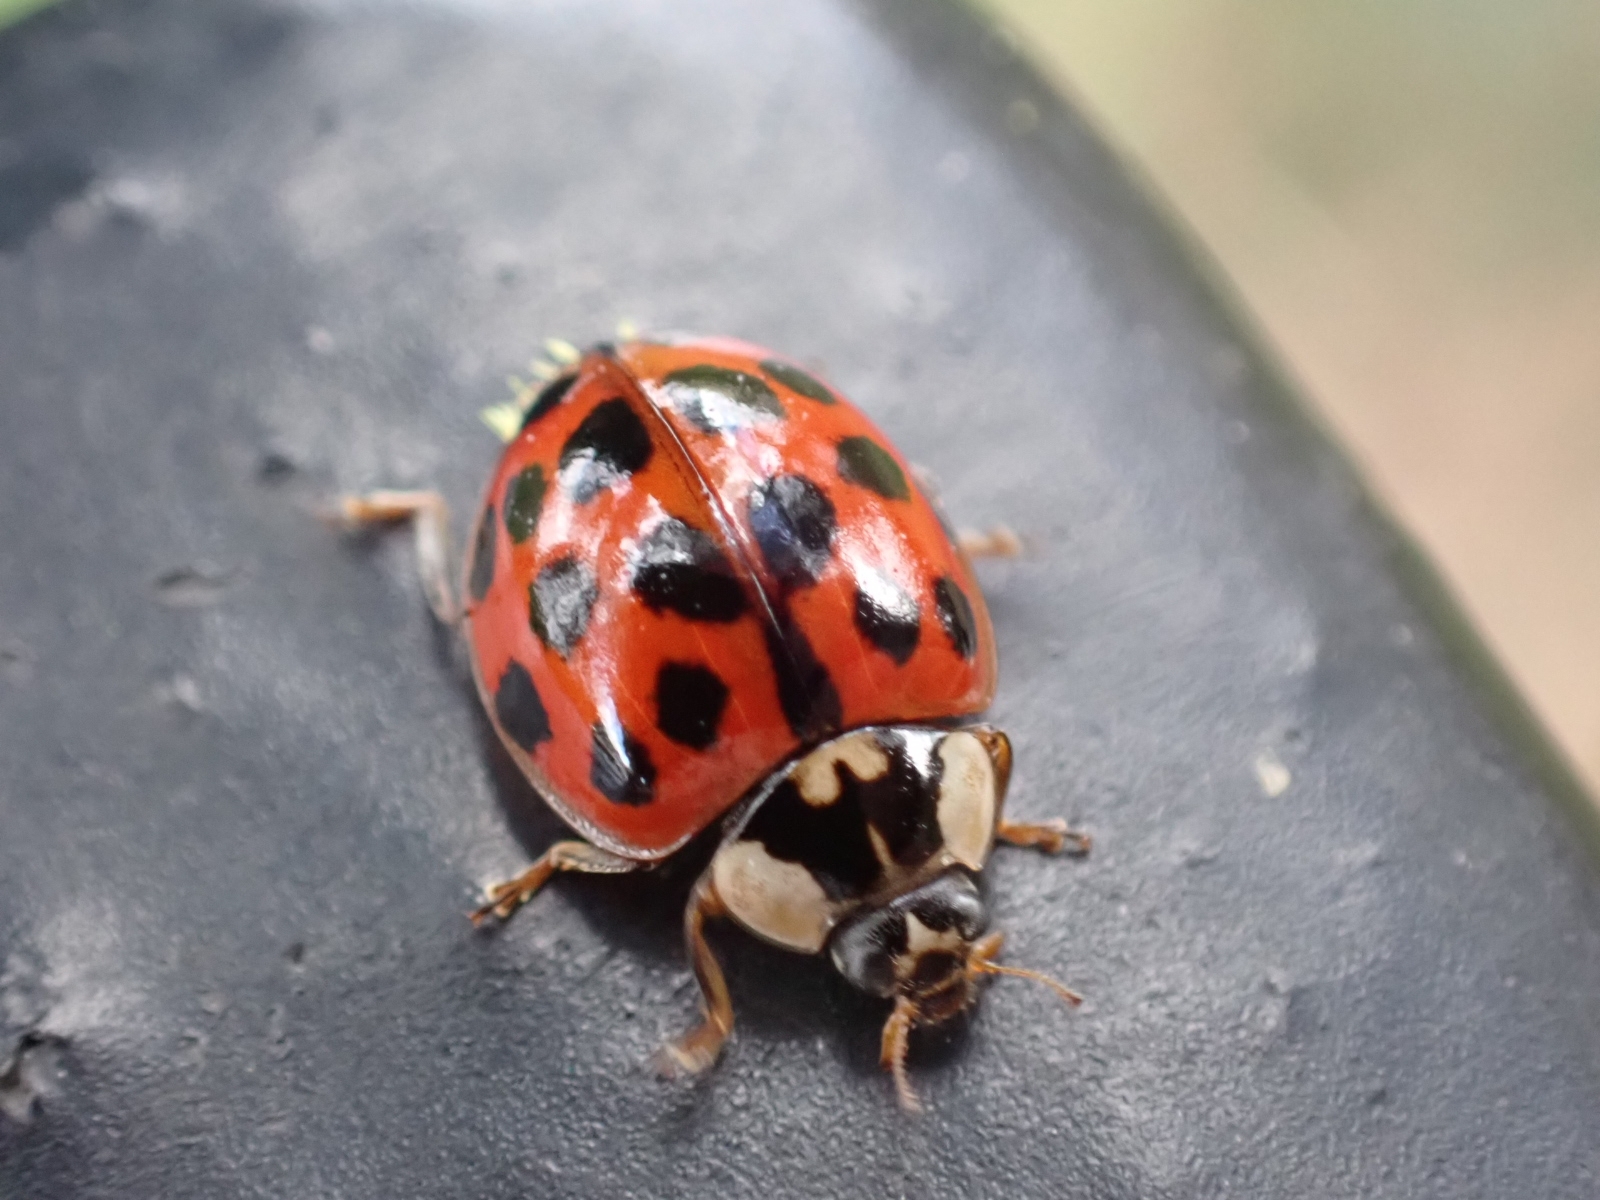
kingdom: Animalia
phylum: Arthropoda
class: Insecta
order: Coleoptera
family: Coccinellidae
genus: Harmonia
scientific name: Harmonia axyridis
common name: Harlequin ladybird
